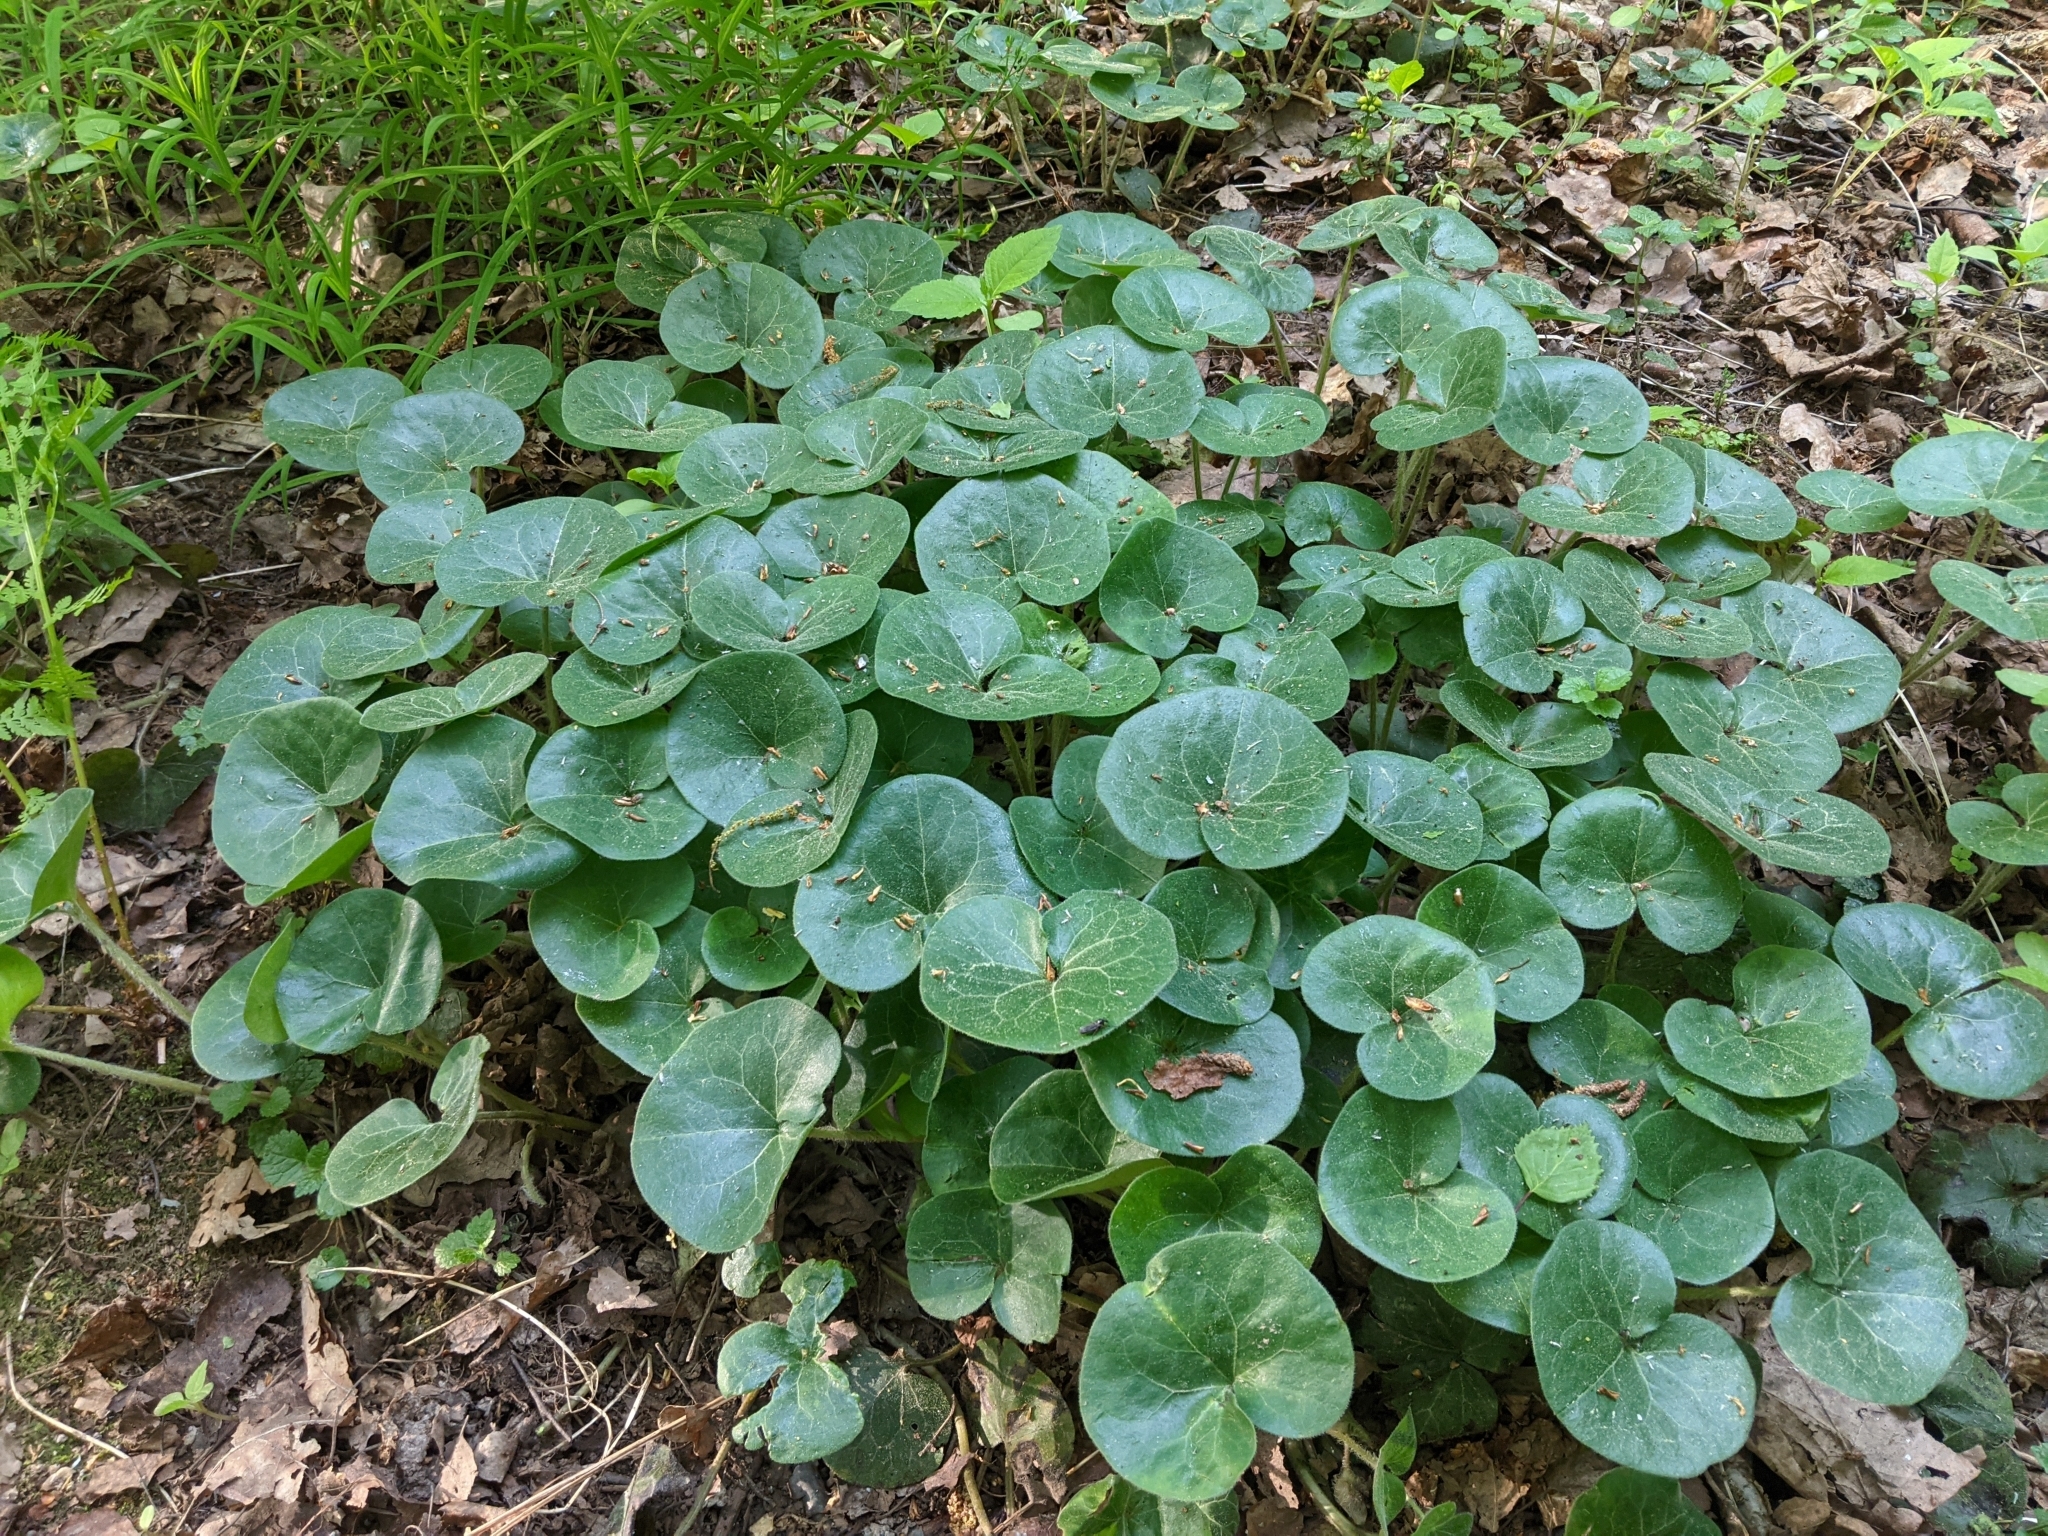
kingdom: Plantae
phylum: Tracheophyta
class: Magnoliopsida
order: Piperales
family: Aristolochiaceae
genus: Asarum
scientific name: Asarum europaeum
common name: Asarabacca
